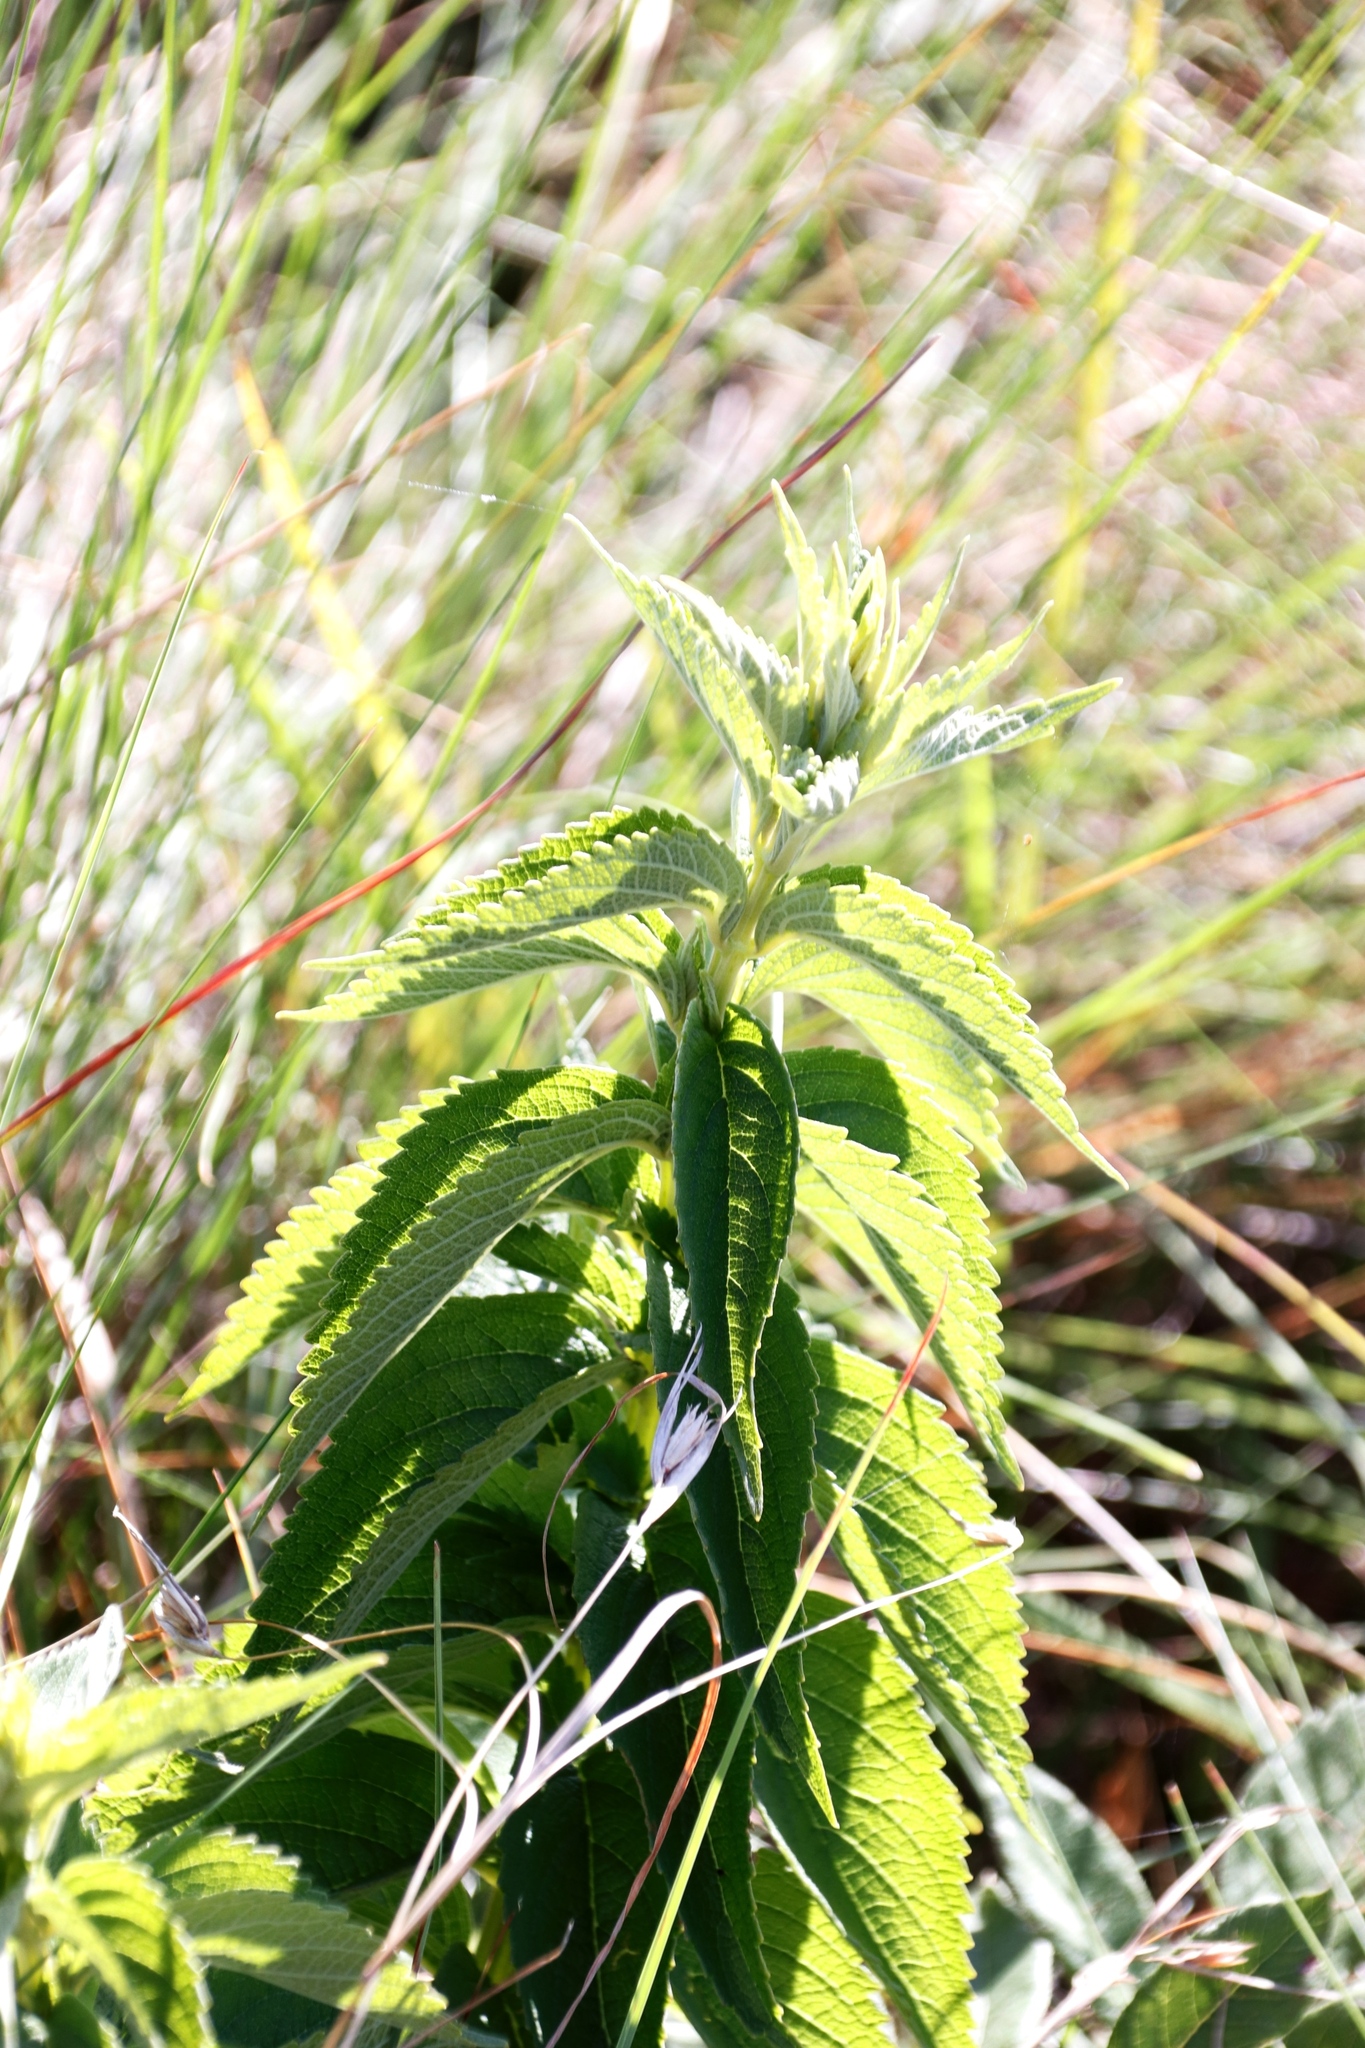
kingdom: Plantae
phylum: Tracheophyta
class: Magnoliopsida
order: Lamiales
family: Lamiaceae
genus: Coleus
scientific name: Coleus calycinus
